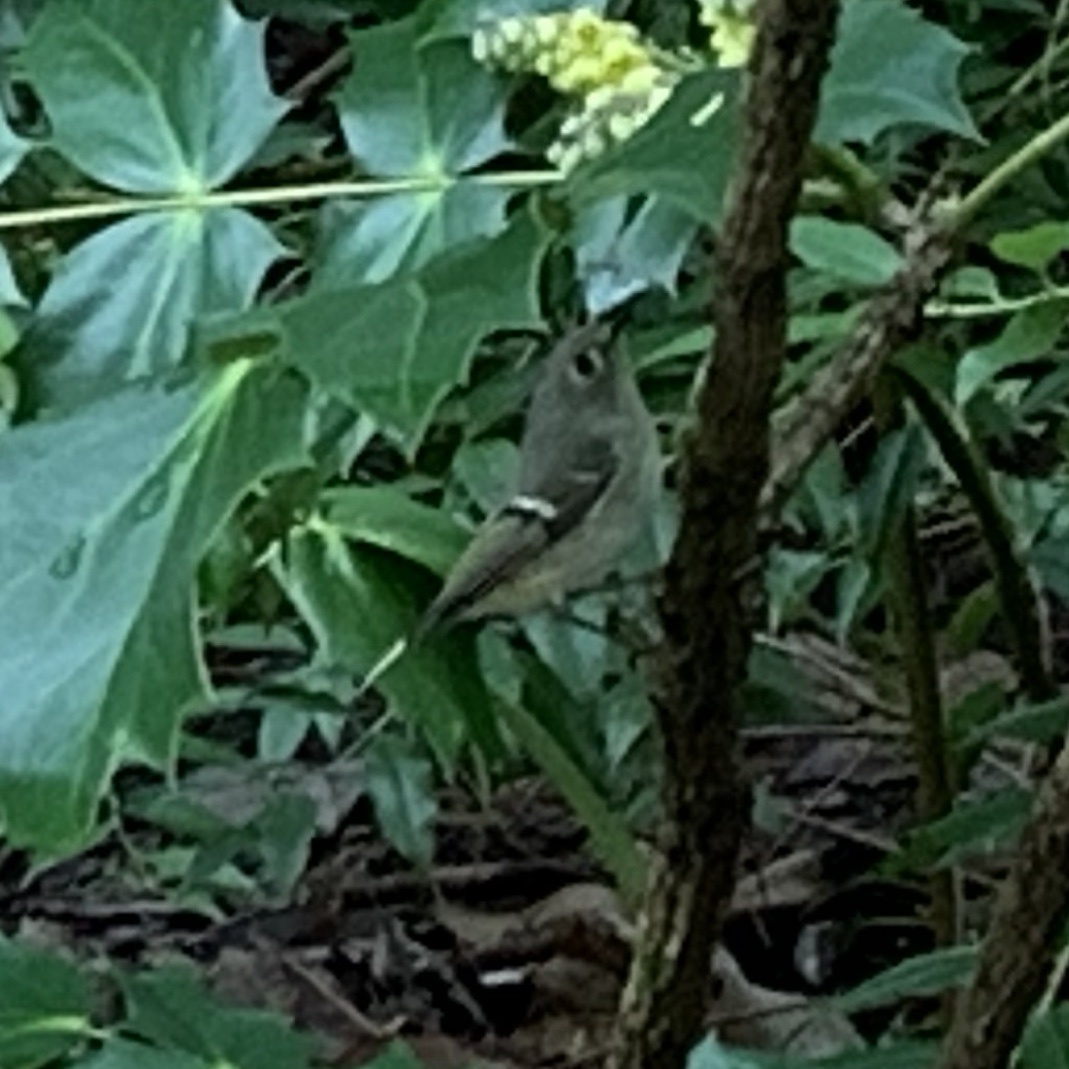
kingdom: Animalia
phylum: Chordata
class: Aves
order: Passeriformes
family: Regulidae
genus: Regulus
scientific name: Regulus calendula
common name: Ruby-crowned kinglet
